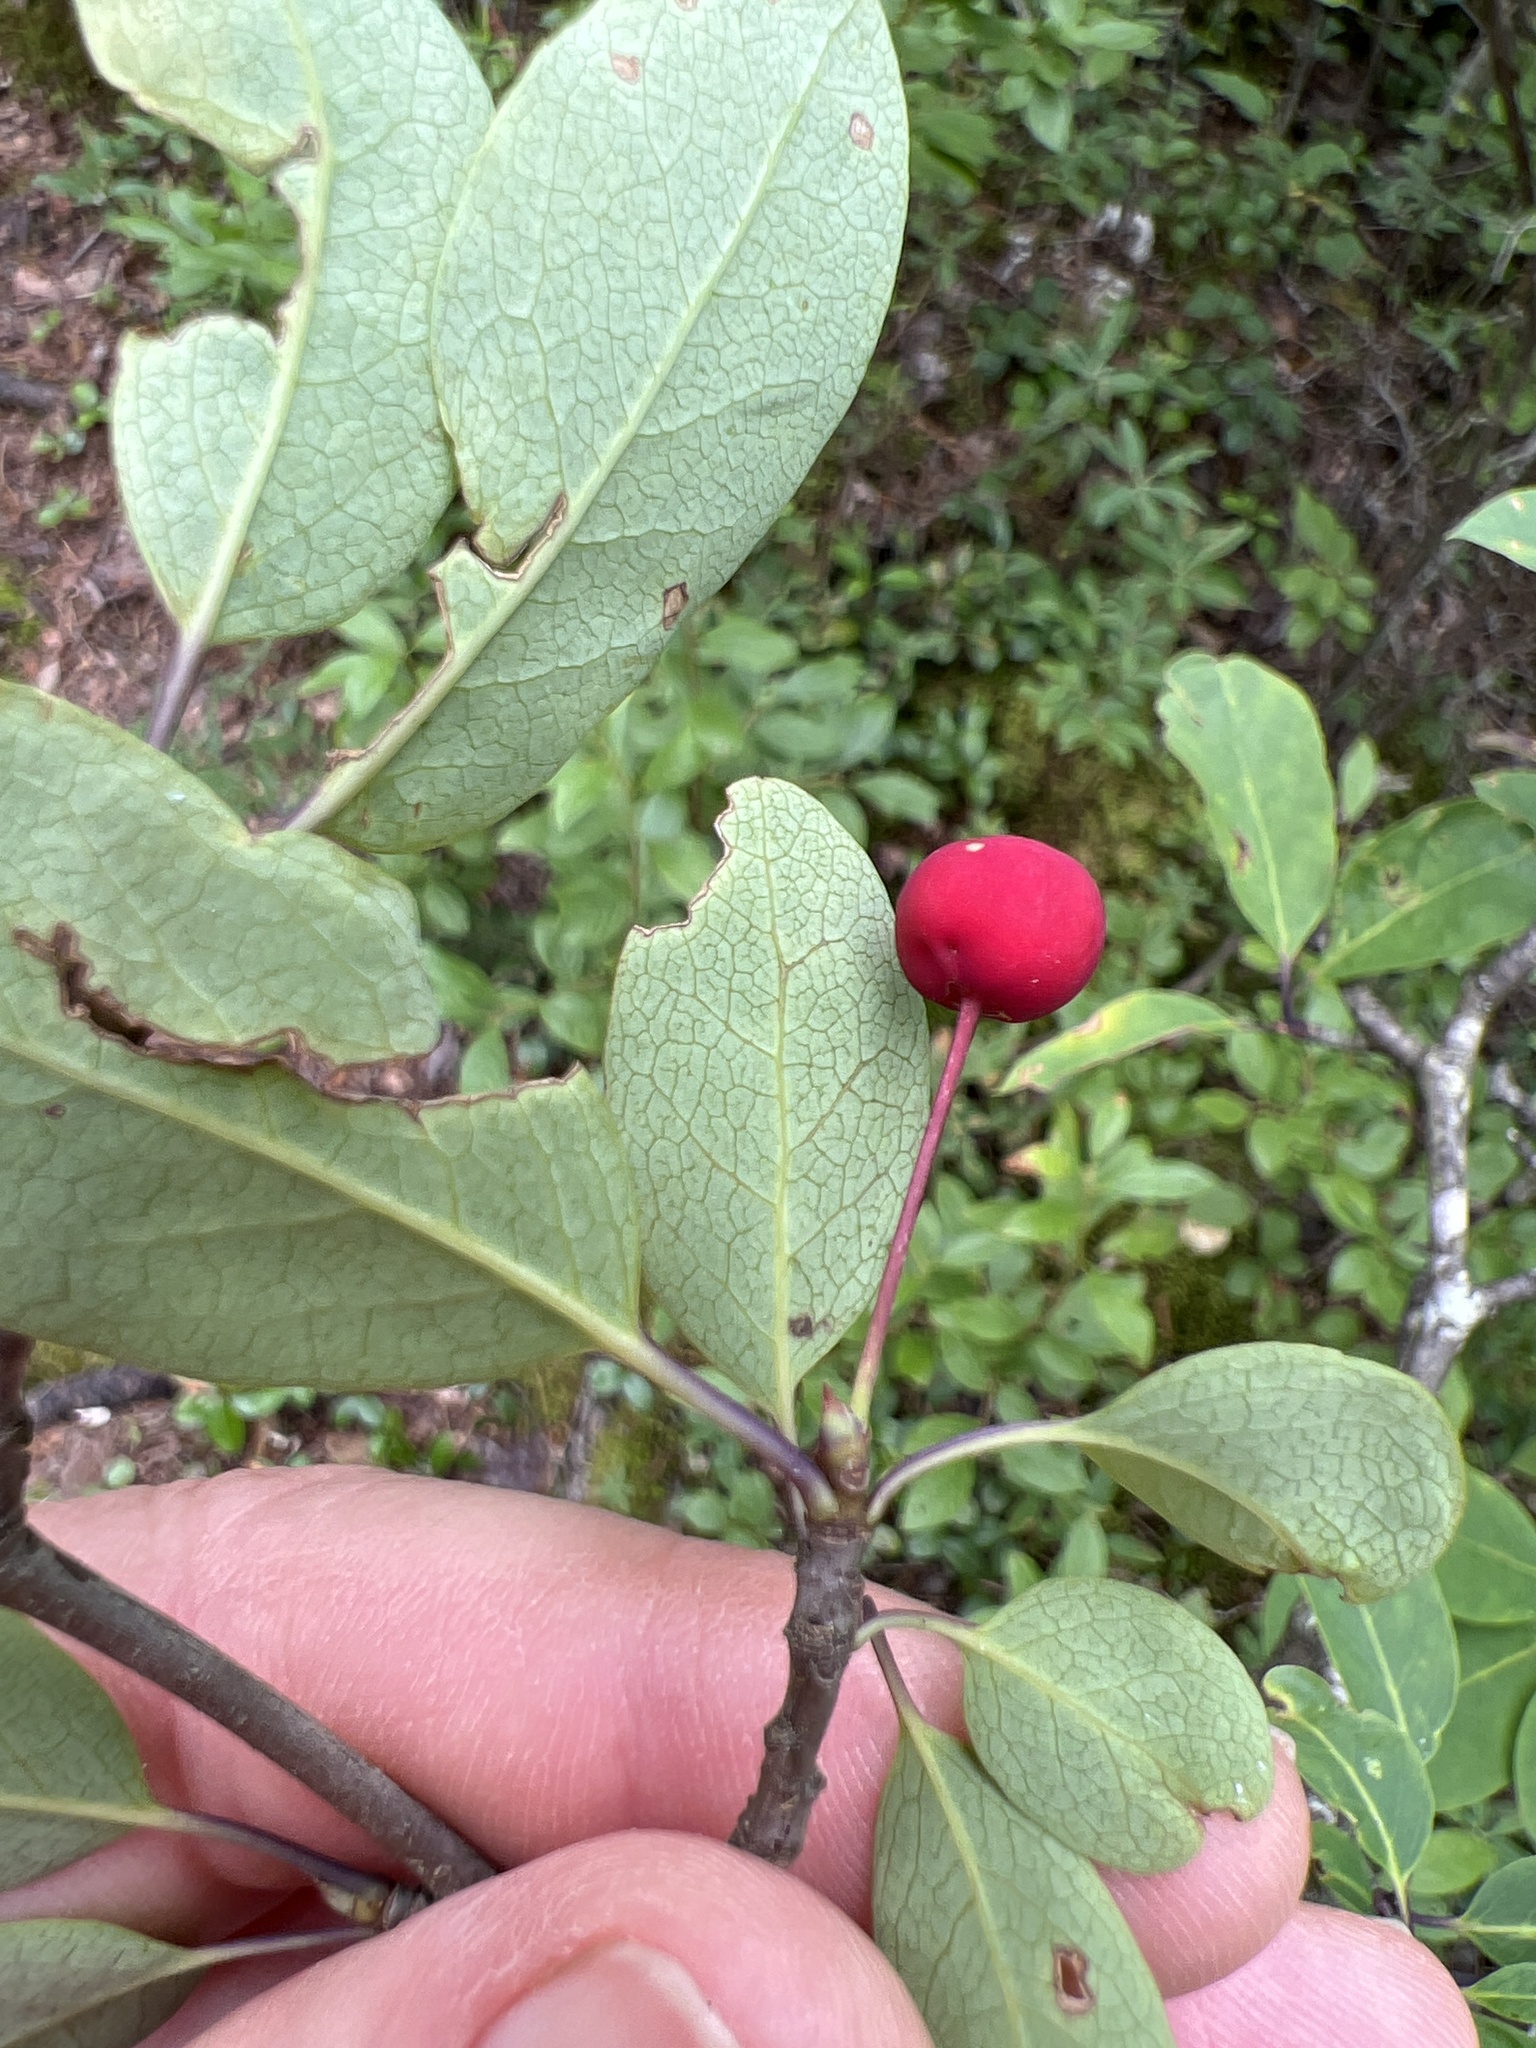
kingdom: Plantae
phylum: Tracheophyta
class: Magnoliopsida
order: Aquifoliales
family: Aquifoliaceae
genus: Ilex
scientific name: Ilex mucronata
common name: Catberry
